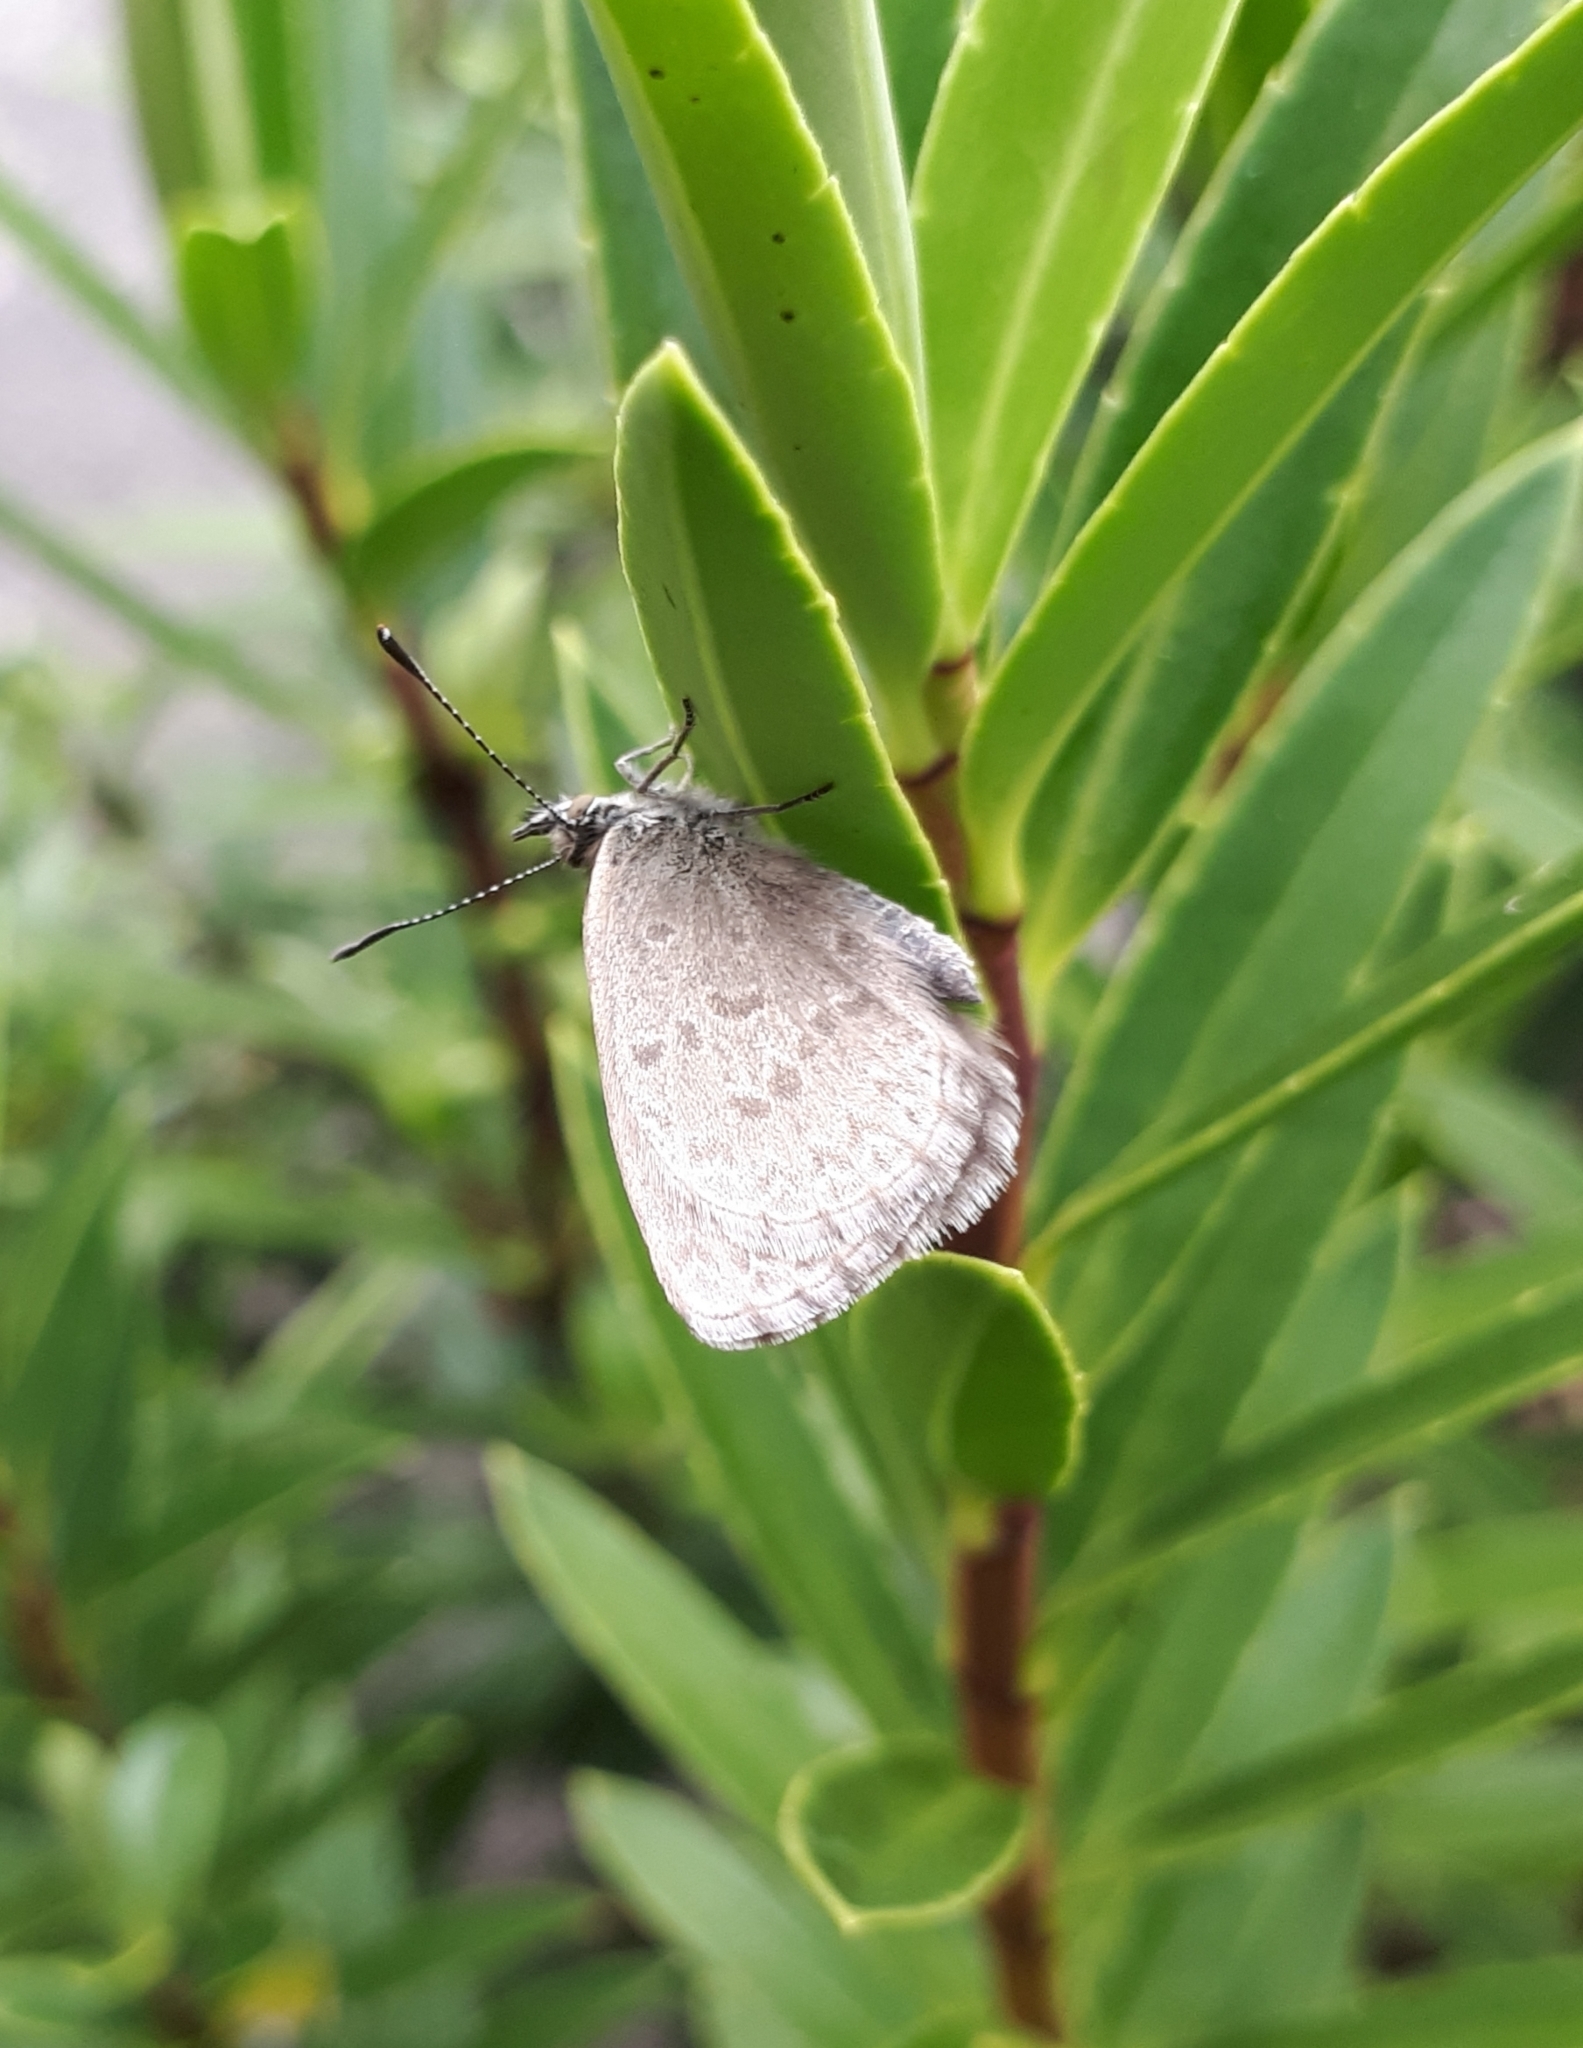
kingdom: Animalia
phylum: Arthropoda
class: Insecta
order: Lepidoptera
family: Lycaenidae
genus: Zizina
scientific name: Zizina labradus
